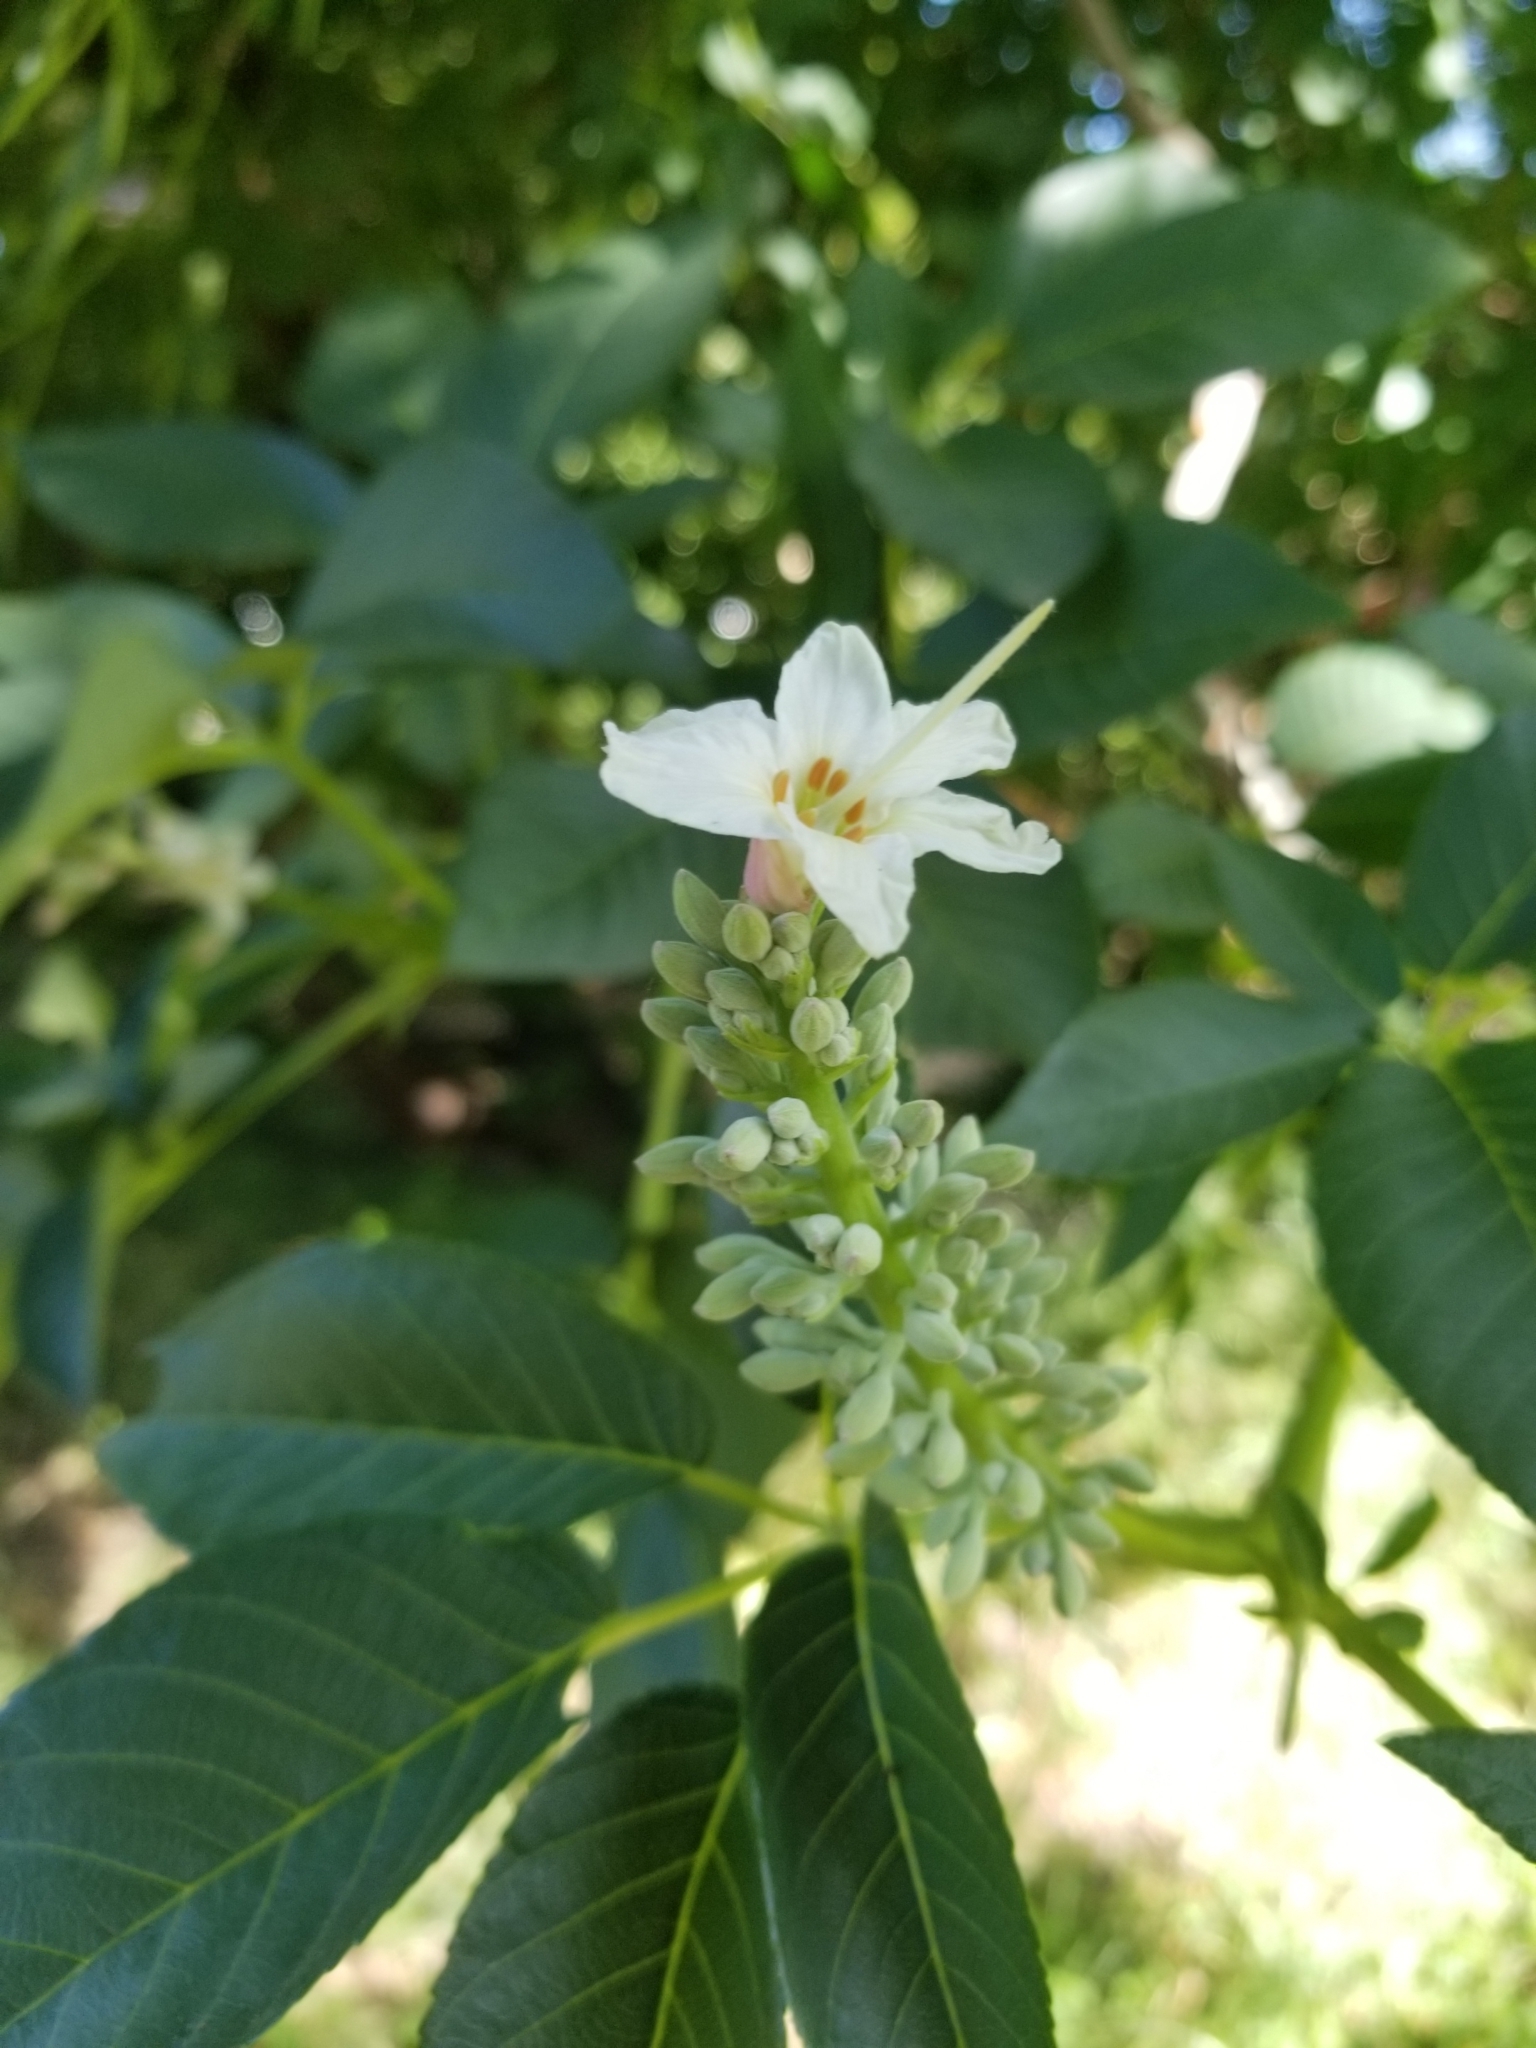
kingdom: Plantae
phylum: Tracheophyta
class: Magnoliopsida
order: Sapindales
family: Sapindaceae
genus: Aesculus
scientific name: Aesculus californica
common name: California buckeye
